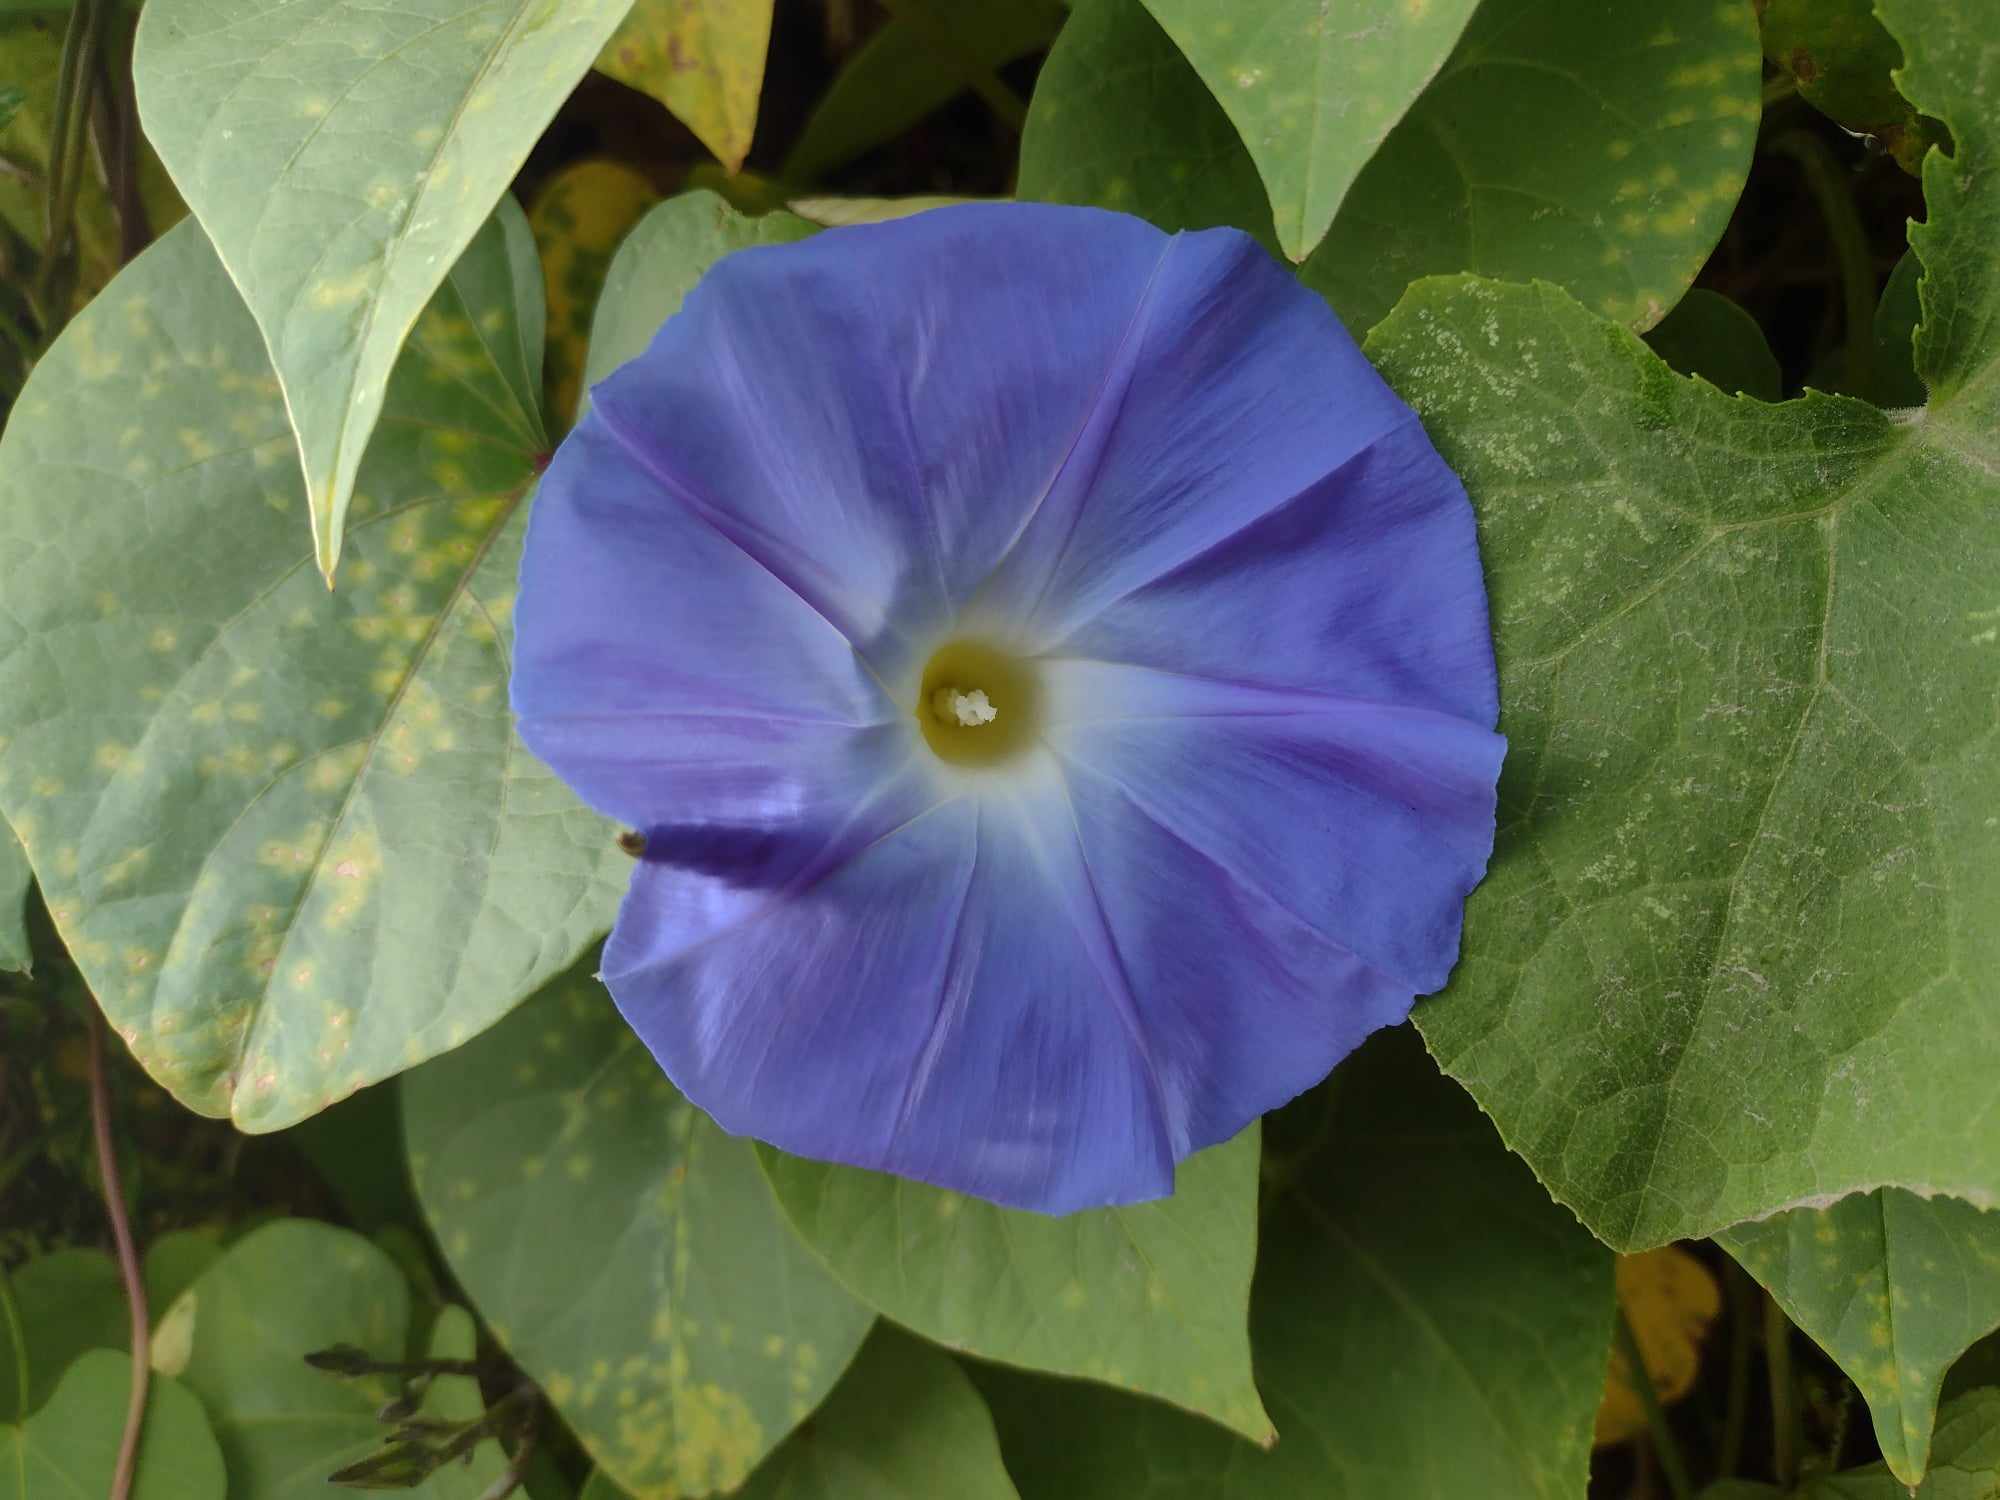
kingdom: Plantae
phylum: Tracheophyta
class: Magnoliopsida
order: Solanales
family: Convolvulaceae
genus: Ipomoea
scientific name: Ipomoea tricolor
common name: Morning-glory
